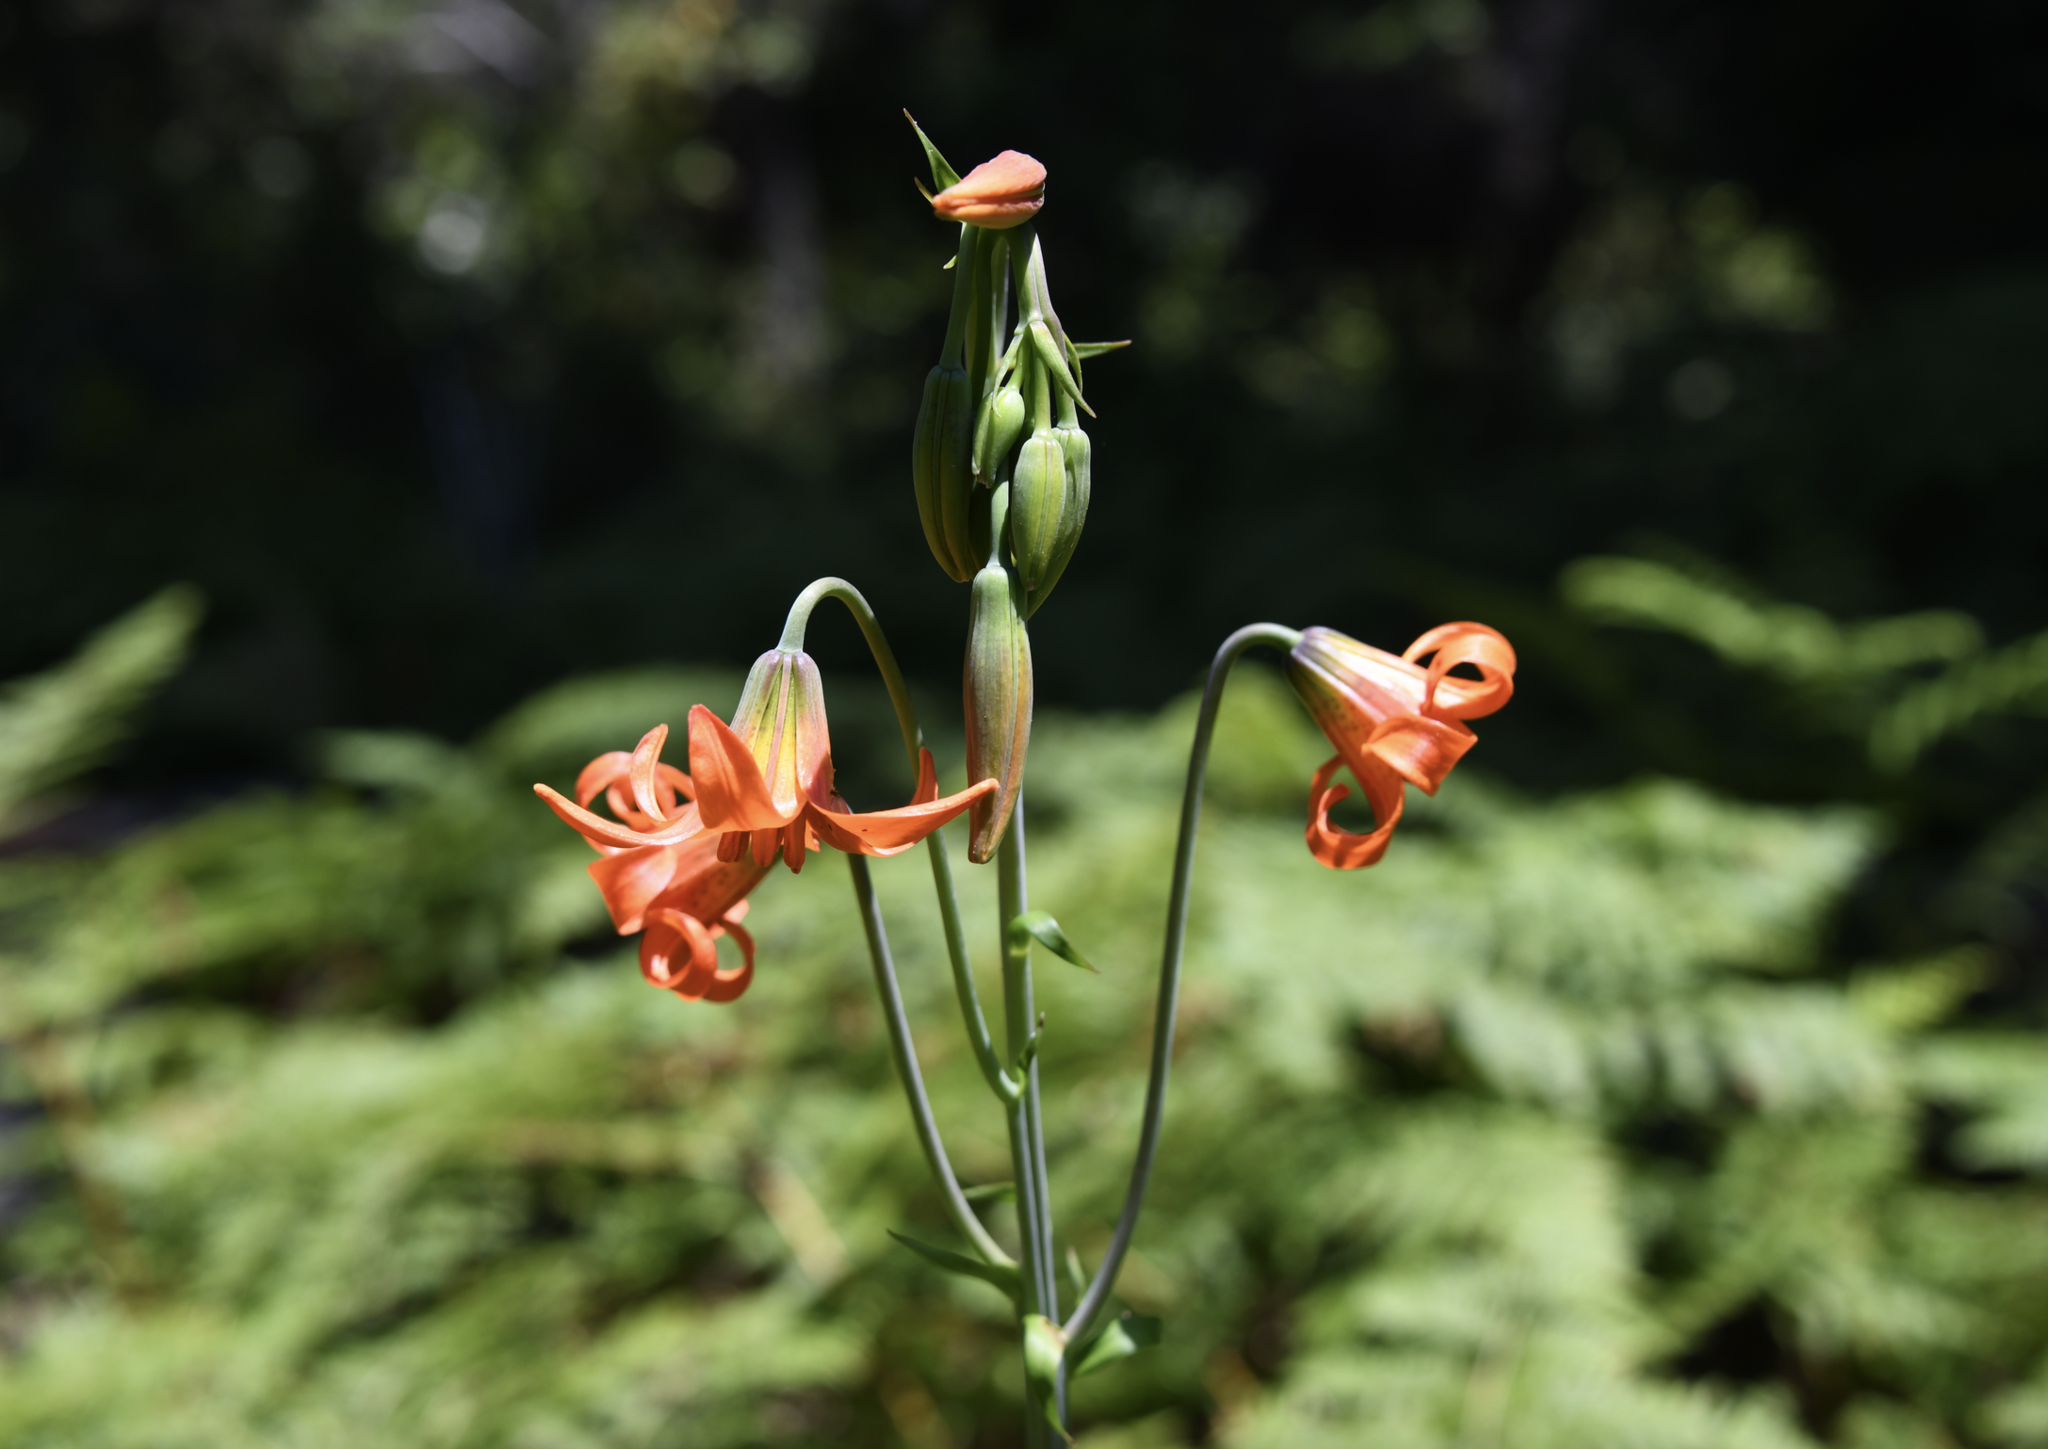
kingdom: Plantae
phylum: Tracheophyta
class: Liliopsida
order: Liliales
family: Liliaceae
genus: Lilium
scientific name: Lilium maritimum
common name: Coastal lily
